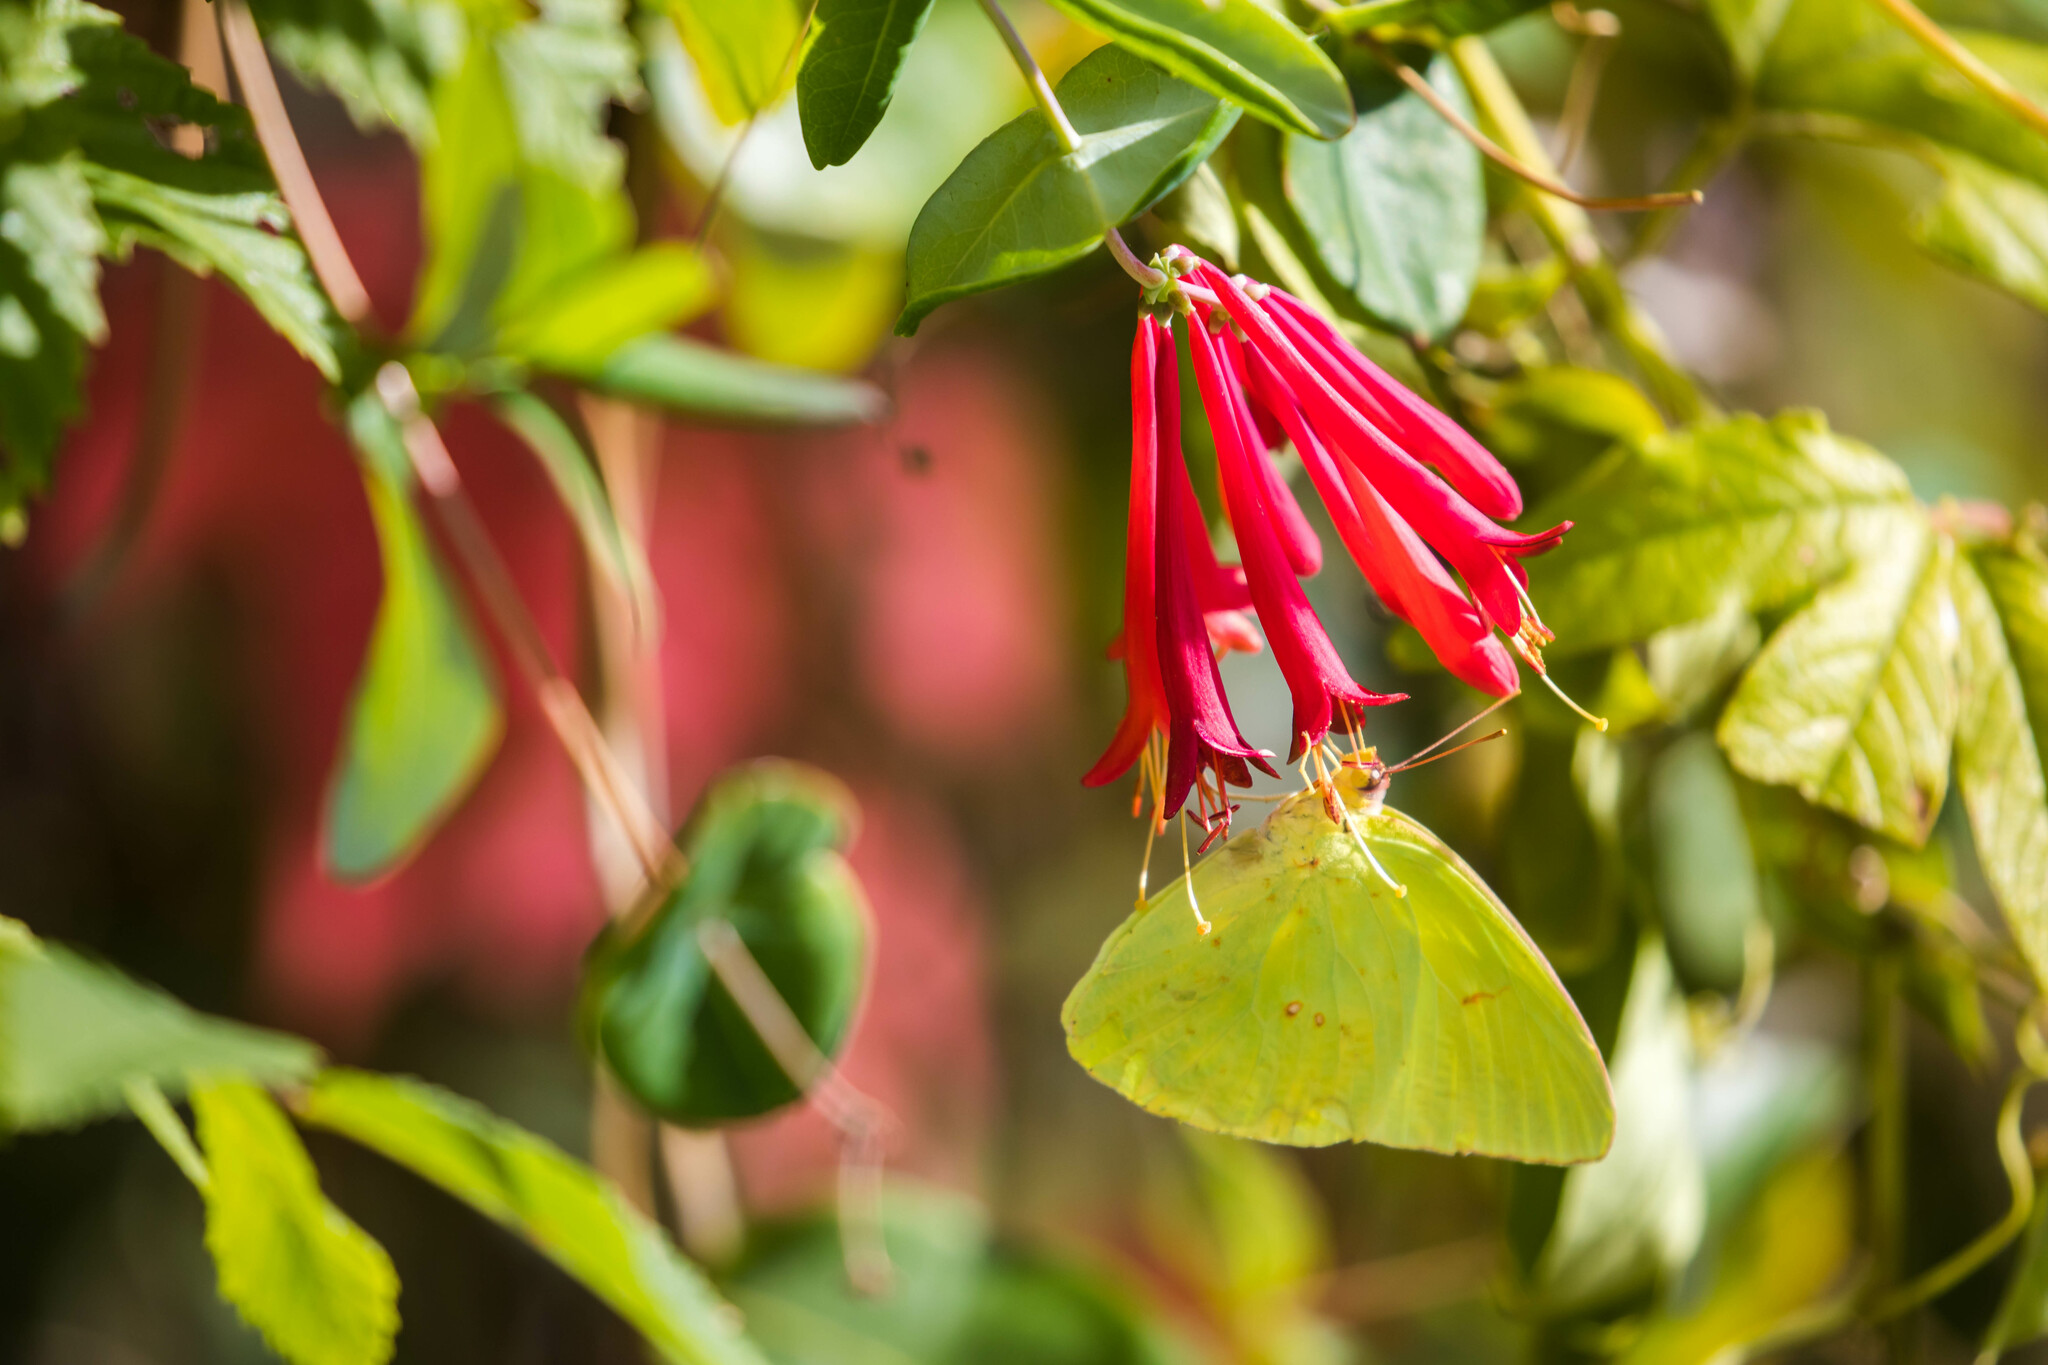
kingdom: Animalia
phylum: Arthropoda
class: Insecta
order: Lepidoptera
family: Pieridae
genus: Phoebis
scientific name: Phoebis sennae
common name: Cloudless sulphur
